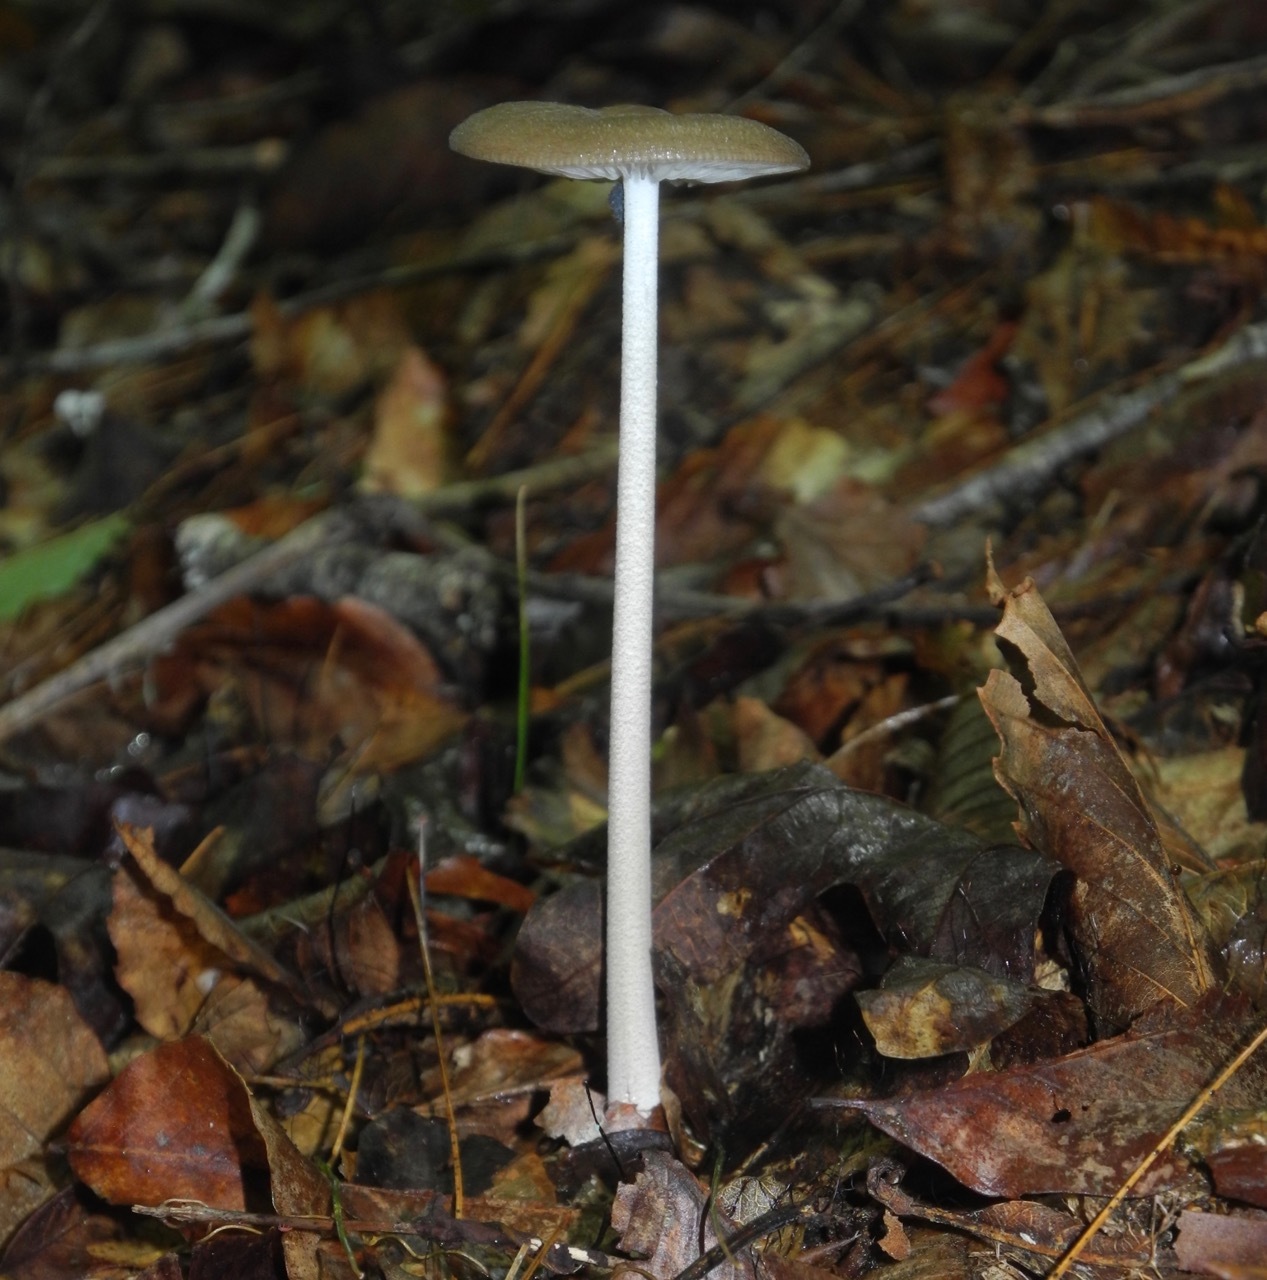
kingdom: Fungi
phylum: Basidiomycota
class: Agaricomycetes
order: Agaricales
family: Physalacriaceae
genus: Hymenopellis
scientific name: Hymenopellis furfuracea
